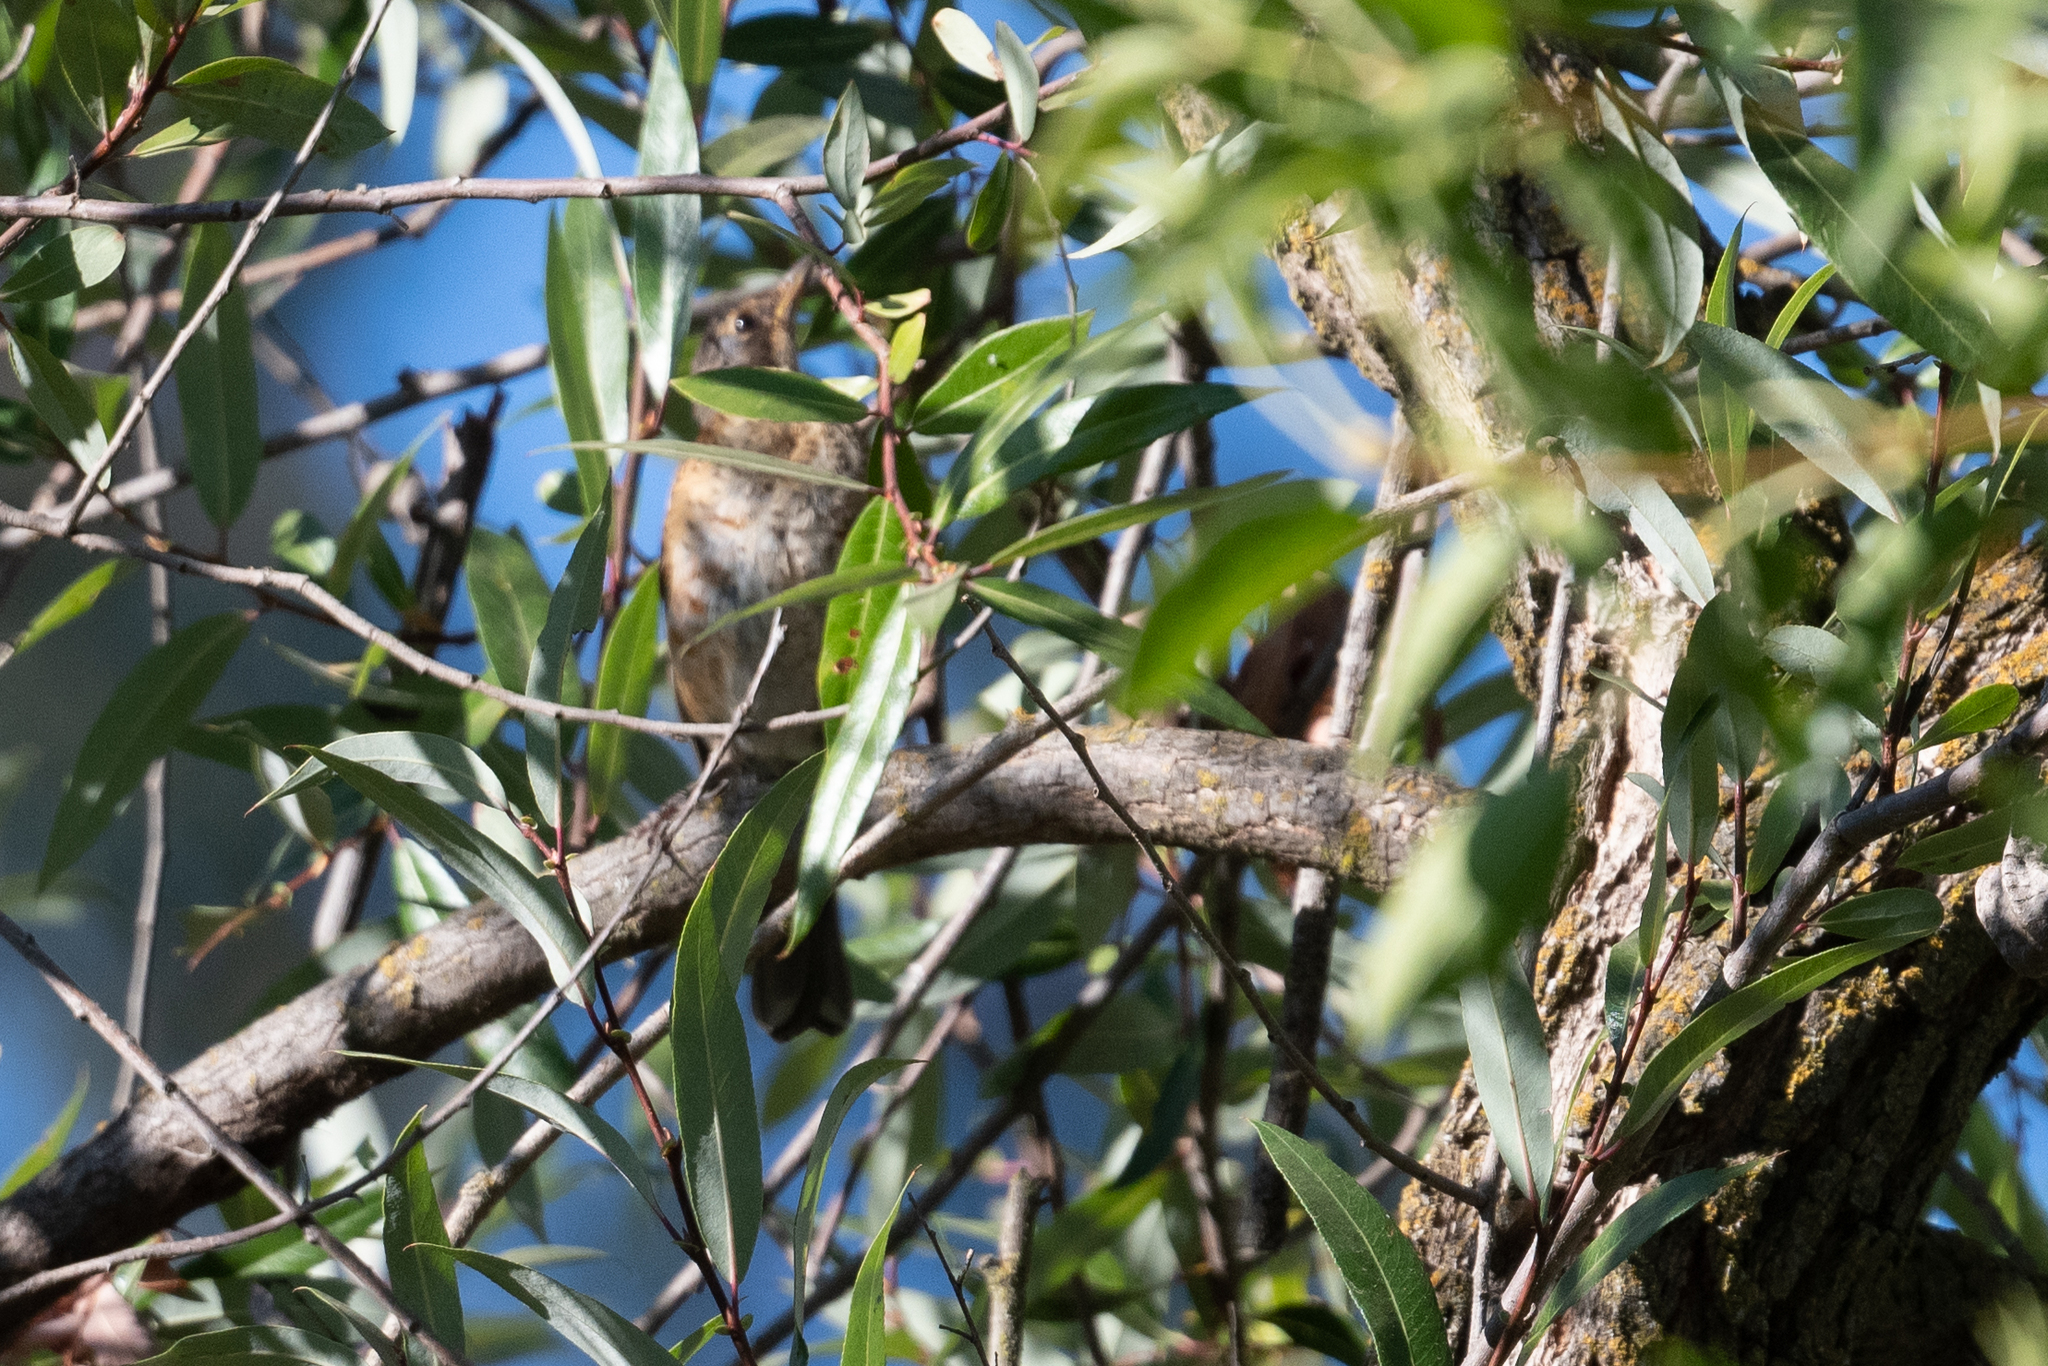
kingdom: Animalia
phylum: Chordata
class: Aves
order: Passeriformes
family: Turdidae
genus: Turdus
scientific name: Turdus migratorius
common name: American robin
